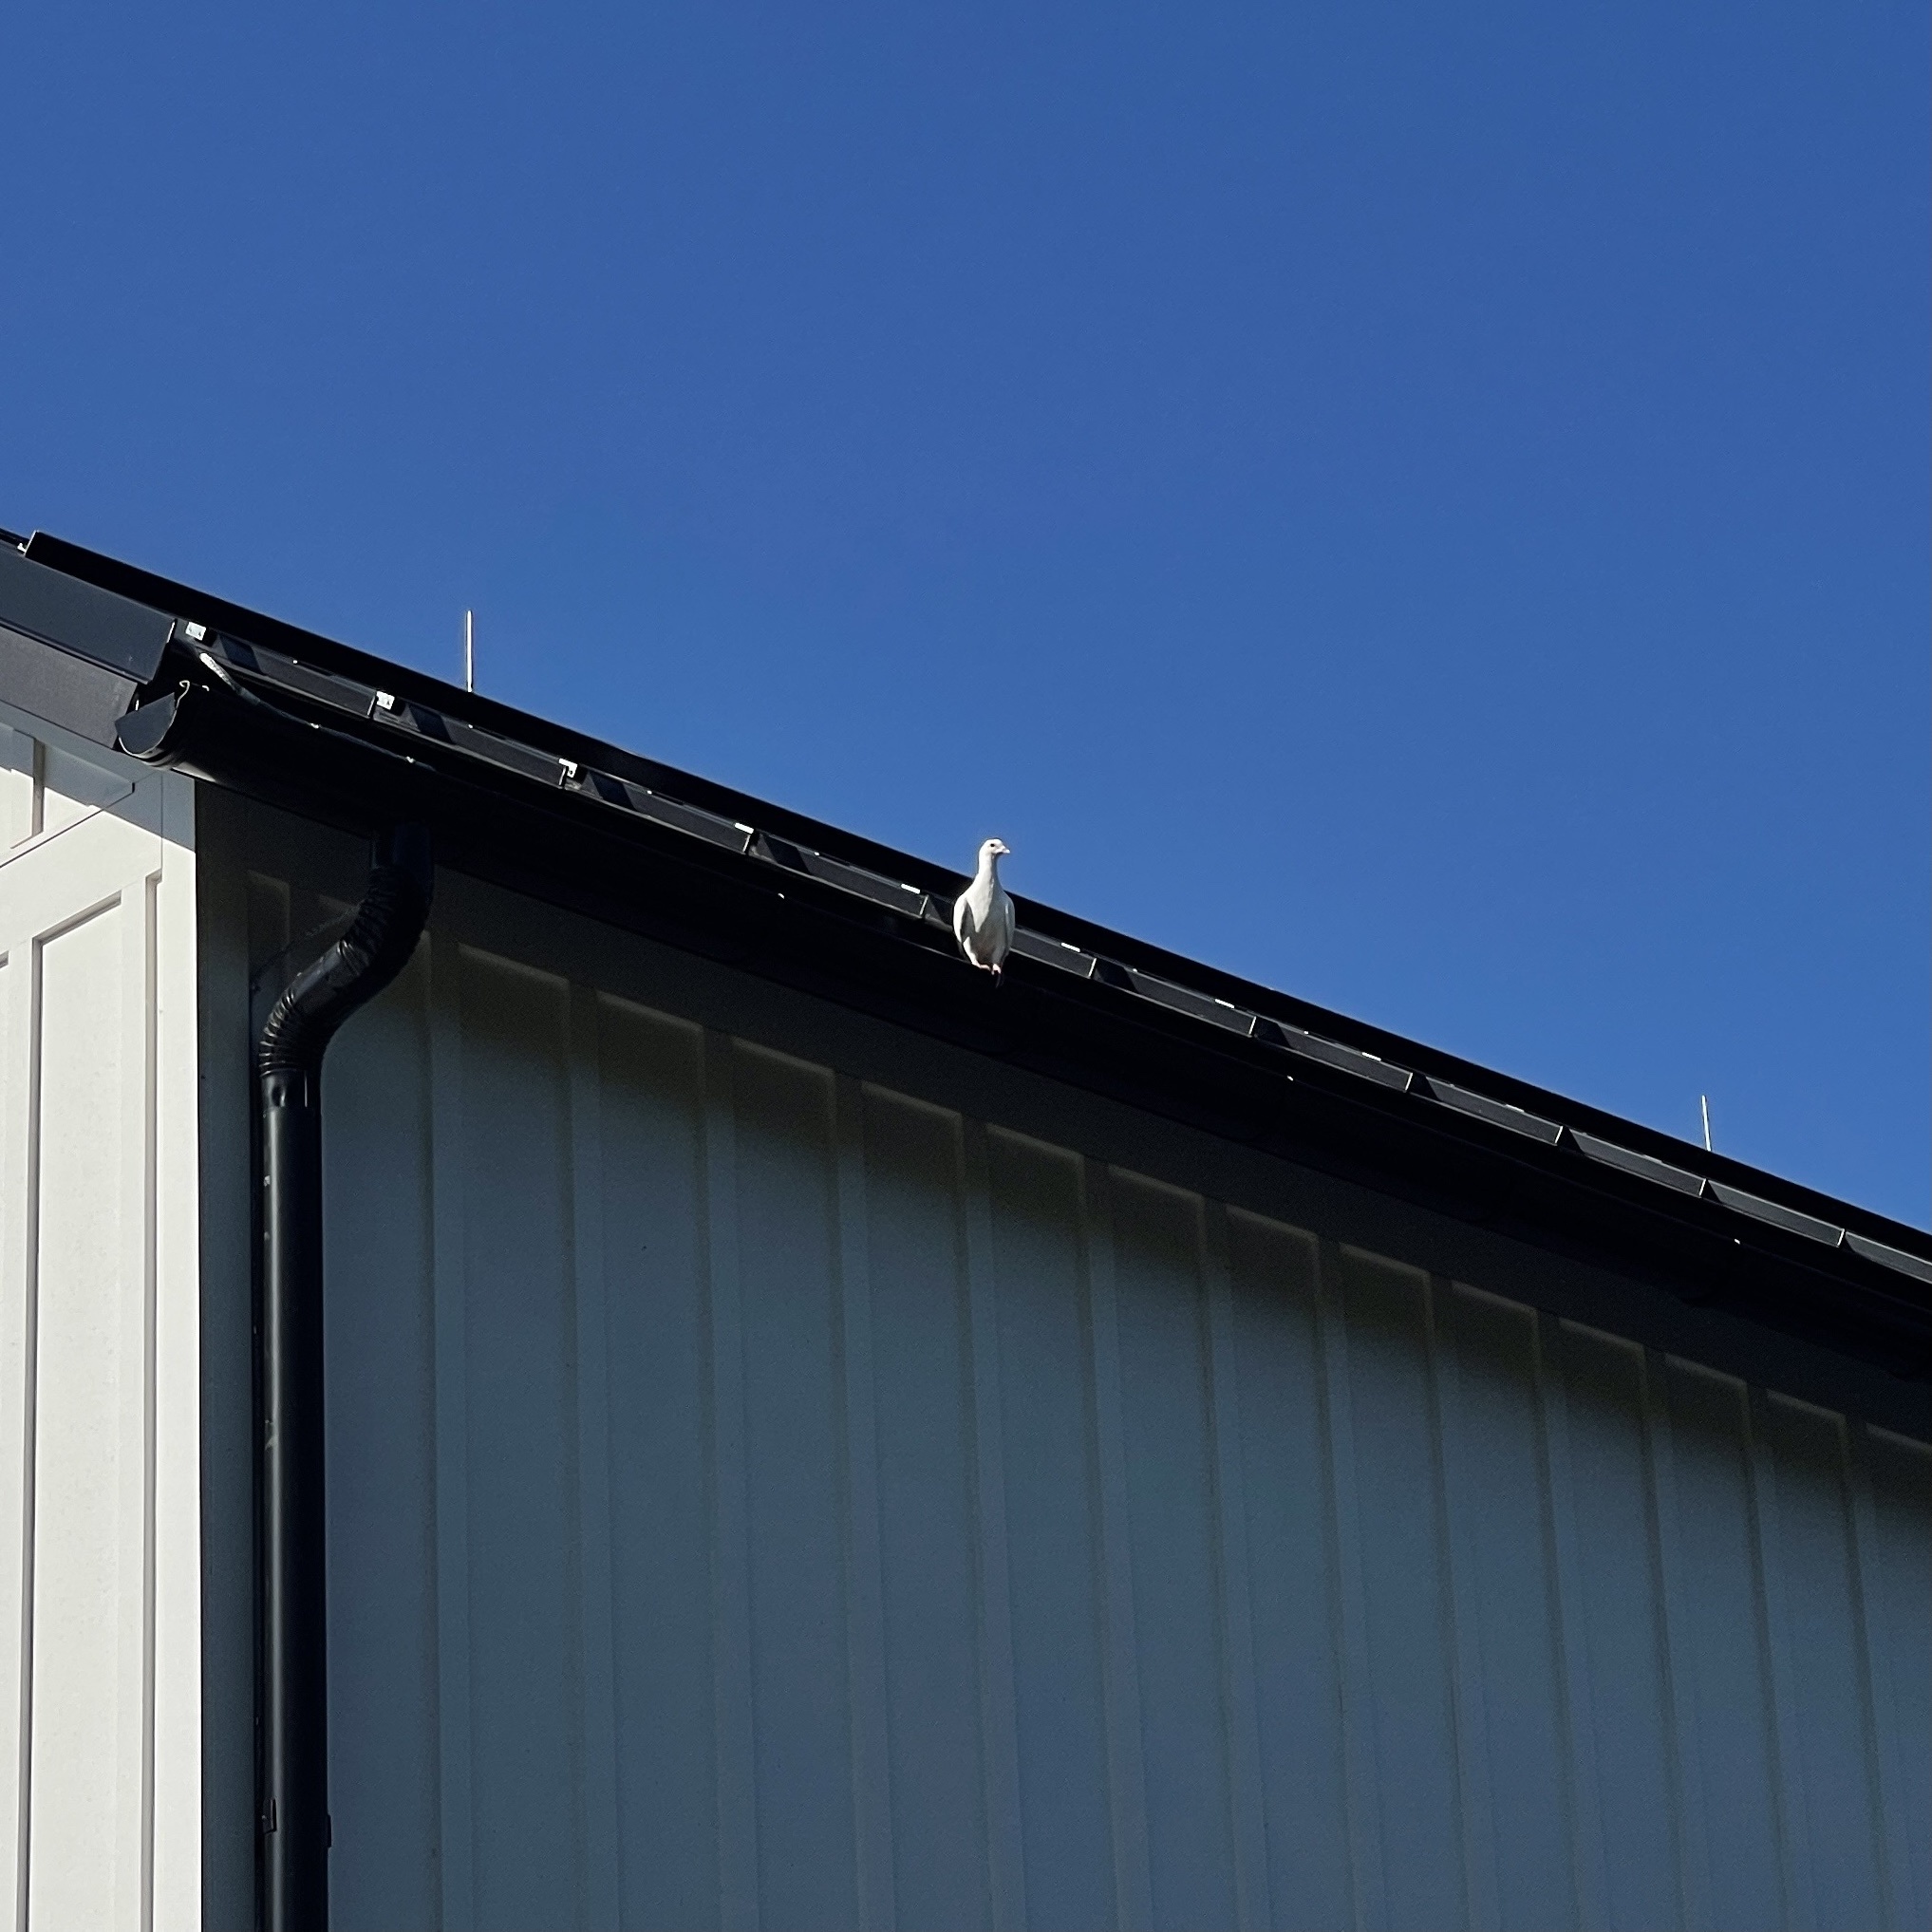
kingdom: Animalia
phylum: Chordata
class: Aves
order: Columbiformes
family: Columbidae
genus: Columba
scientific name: Columba livia
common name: Rock pigeon
